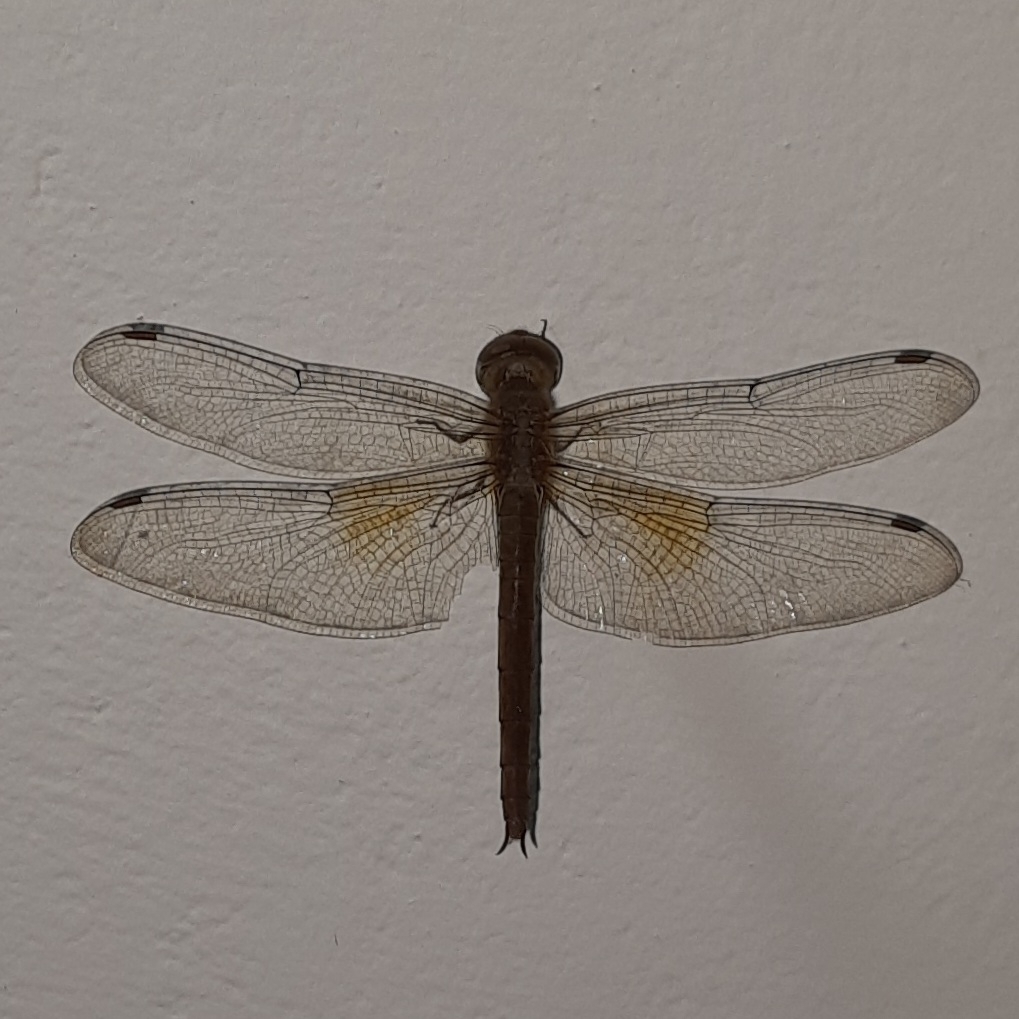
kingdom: Animalia
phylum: Arthropoda
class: Insecta
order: Odonata
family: Libellulidae
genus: Tholymis
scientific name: Tholymis tillarga
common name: Coral-tailed cloud wing
